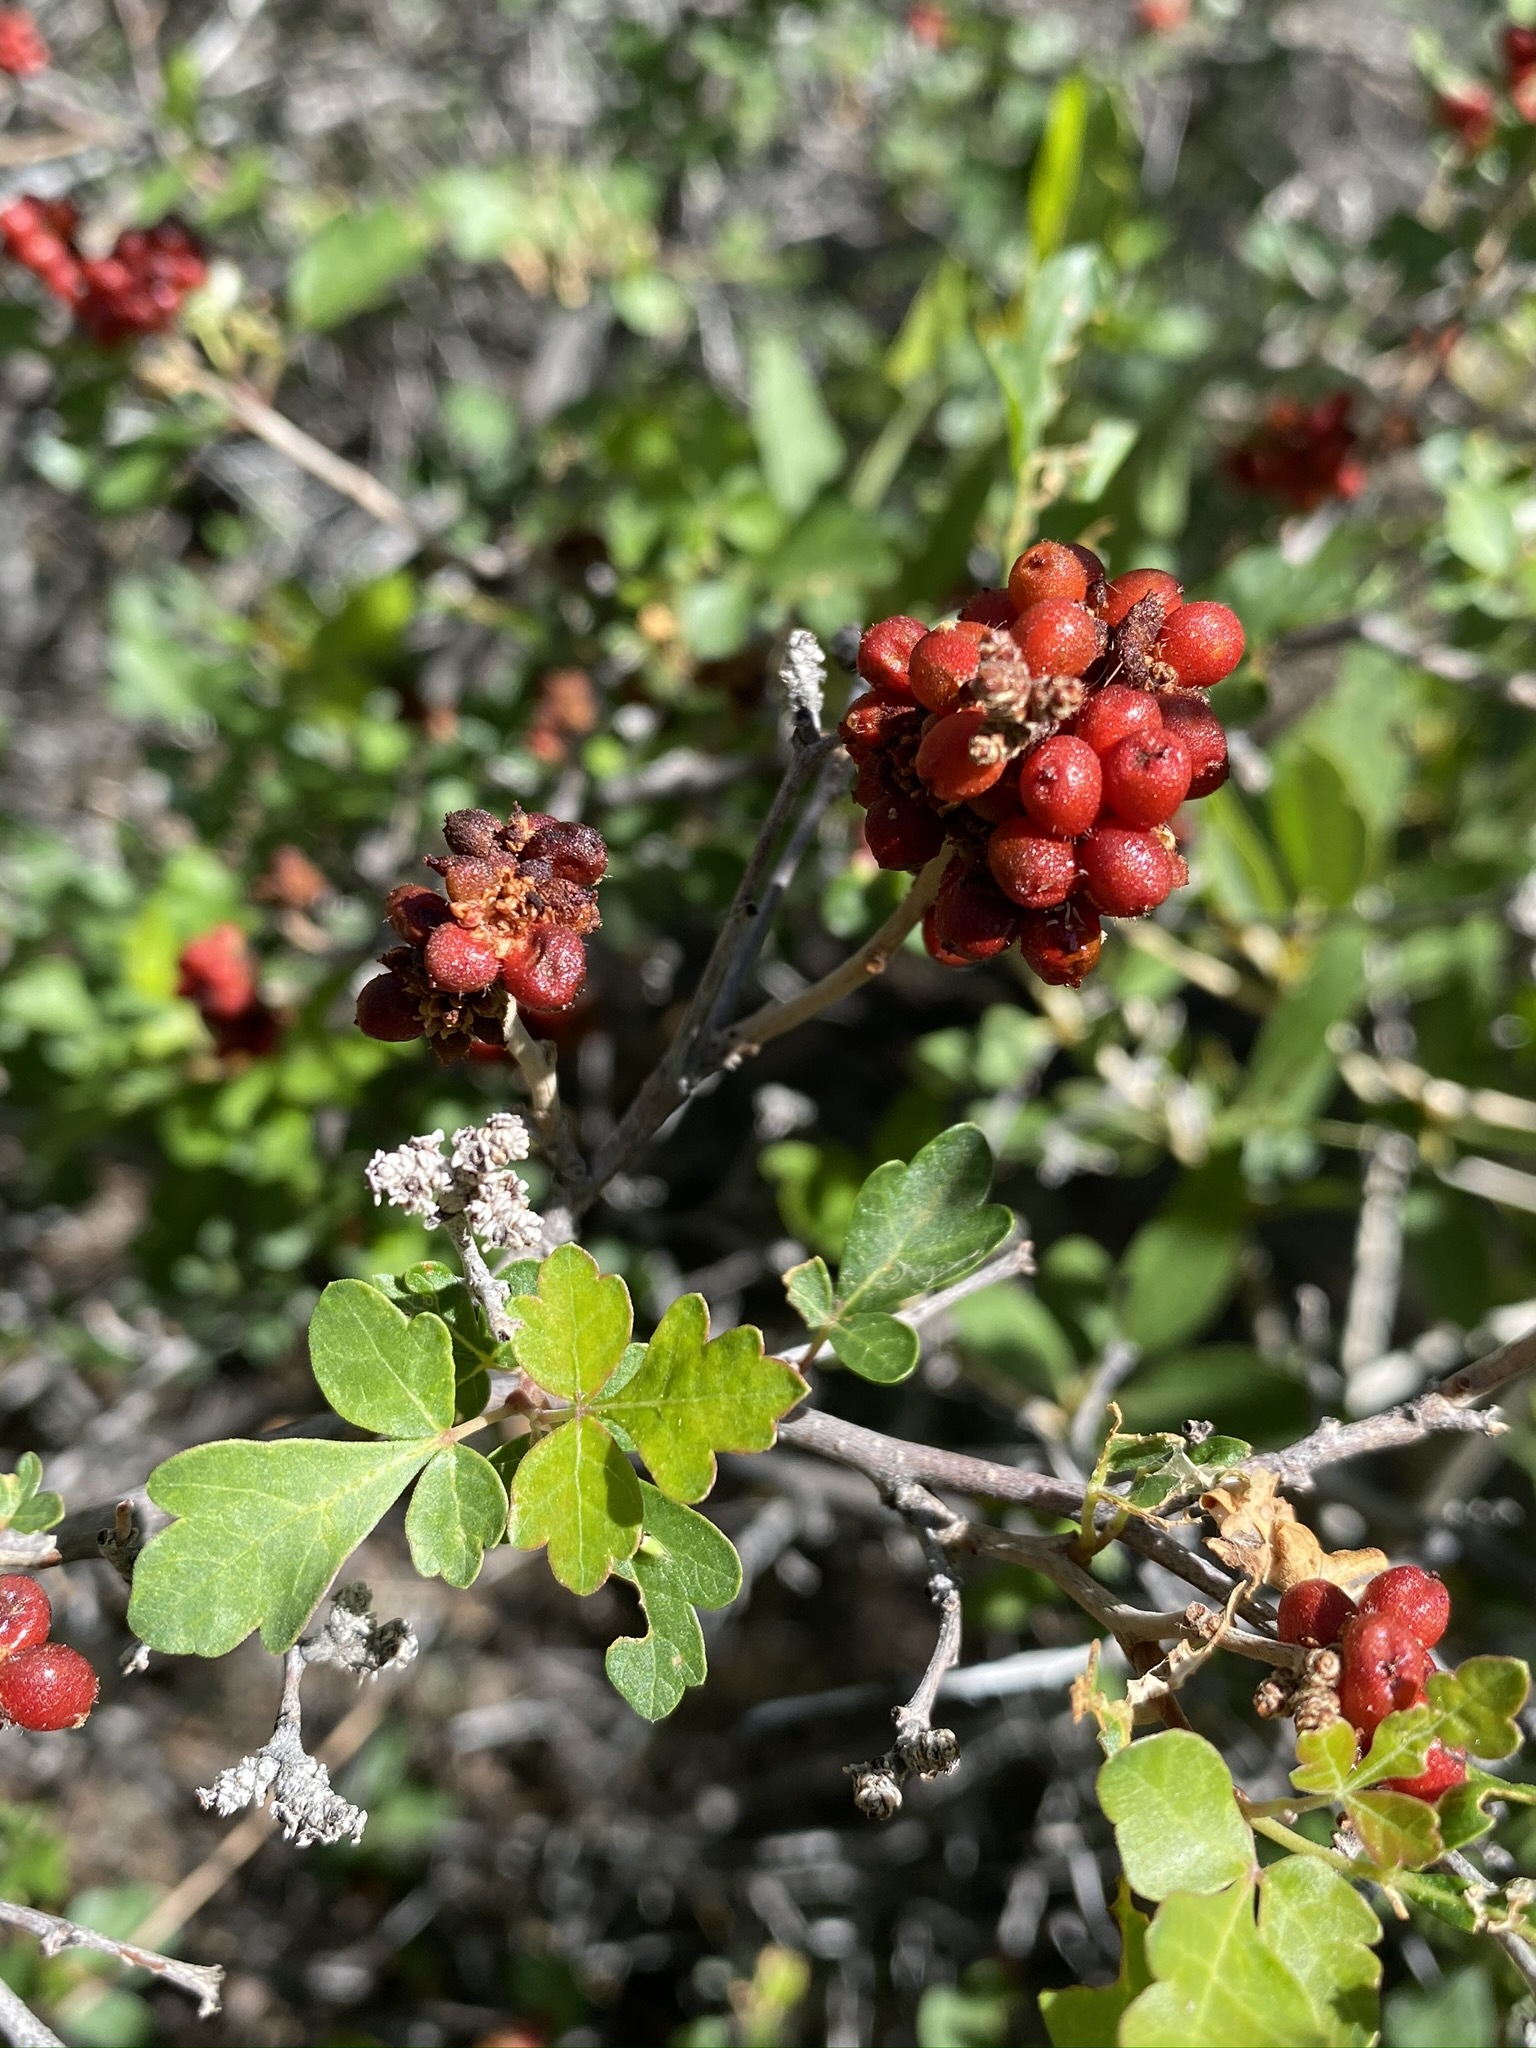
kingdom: Plantae
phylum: Tracheophyta
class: Magnoliopsida
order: Sapindales
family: Anacardiaceae
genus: Rhus
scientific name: Rhus aromatica
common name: Aromatic sumac
